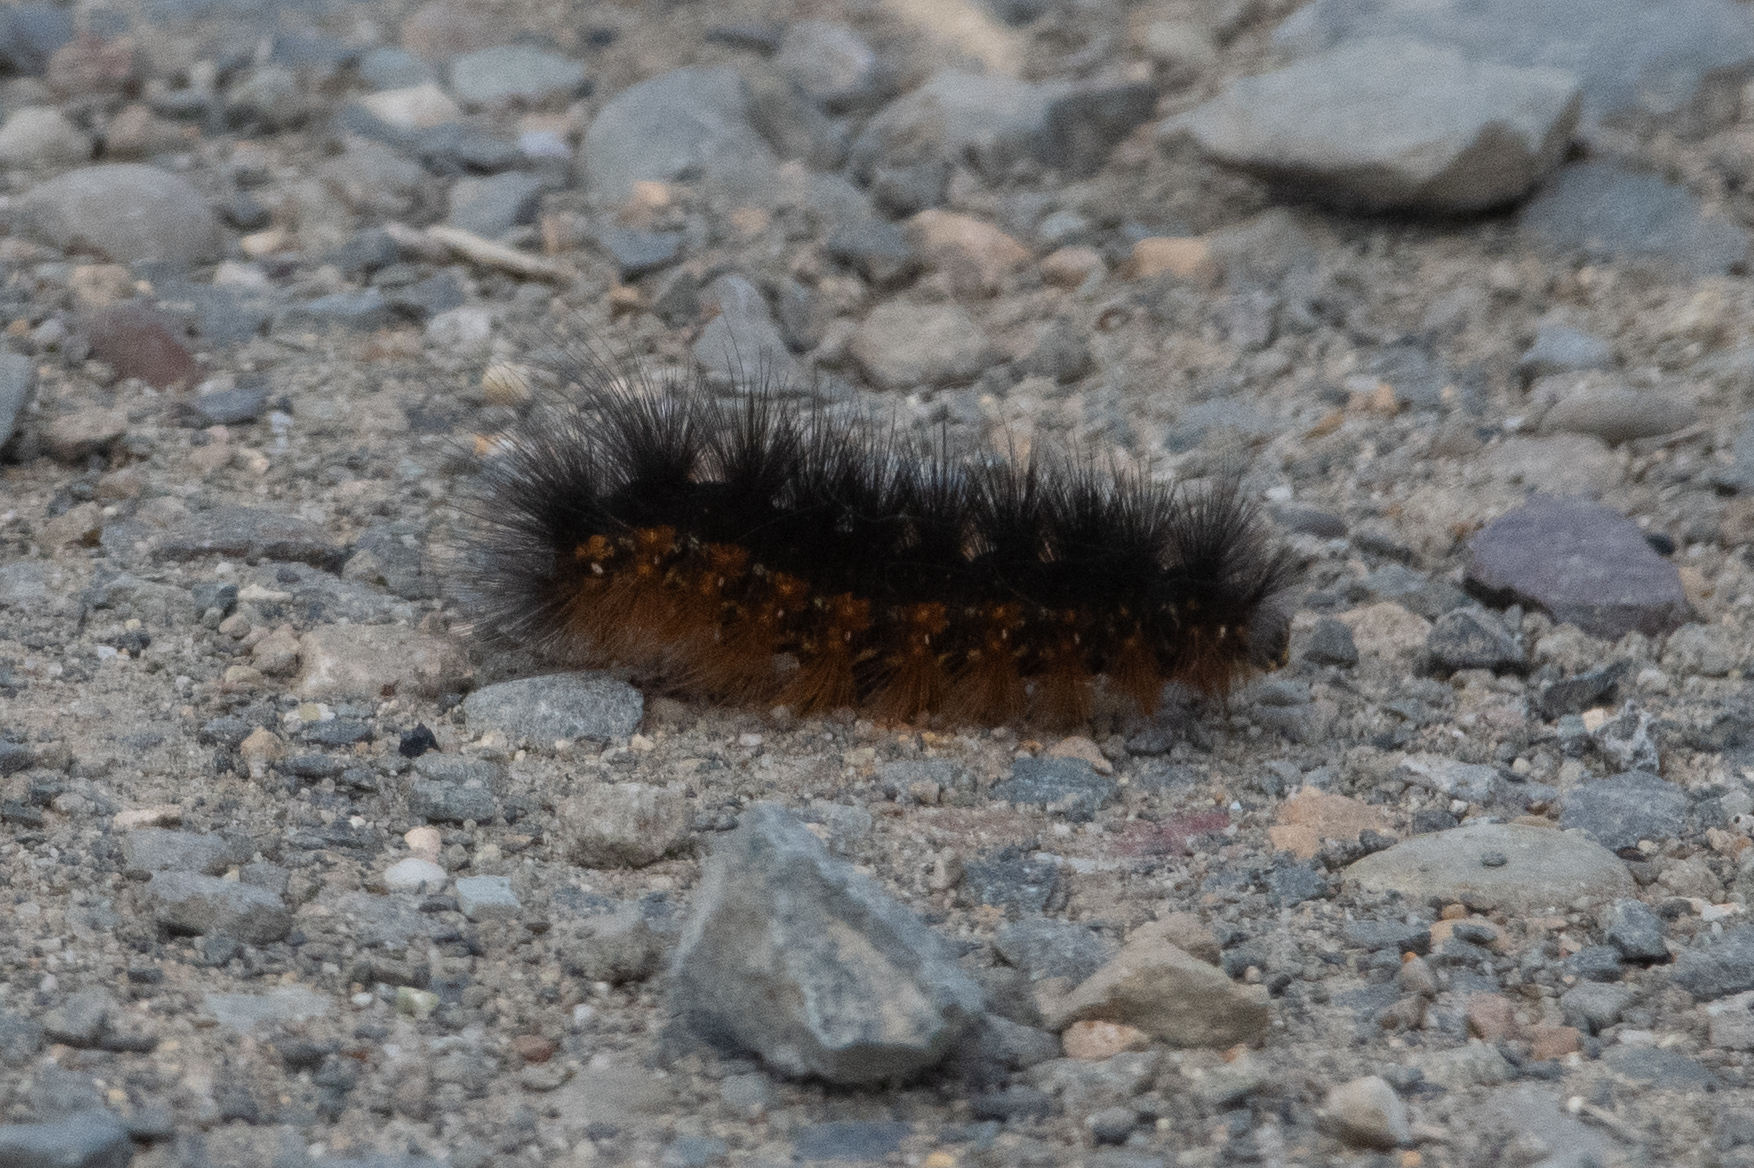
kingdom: Animalia
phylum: Arthropoda
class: Insecta
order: Lepidoptera
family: Erebidae
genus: Estigmene
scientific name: Estigmene acrea
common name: Salt marsh moth
